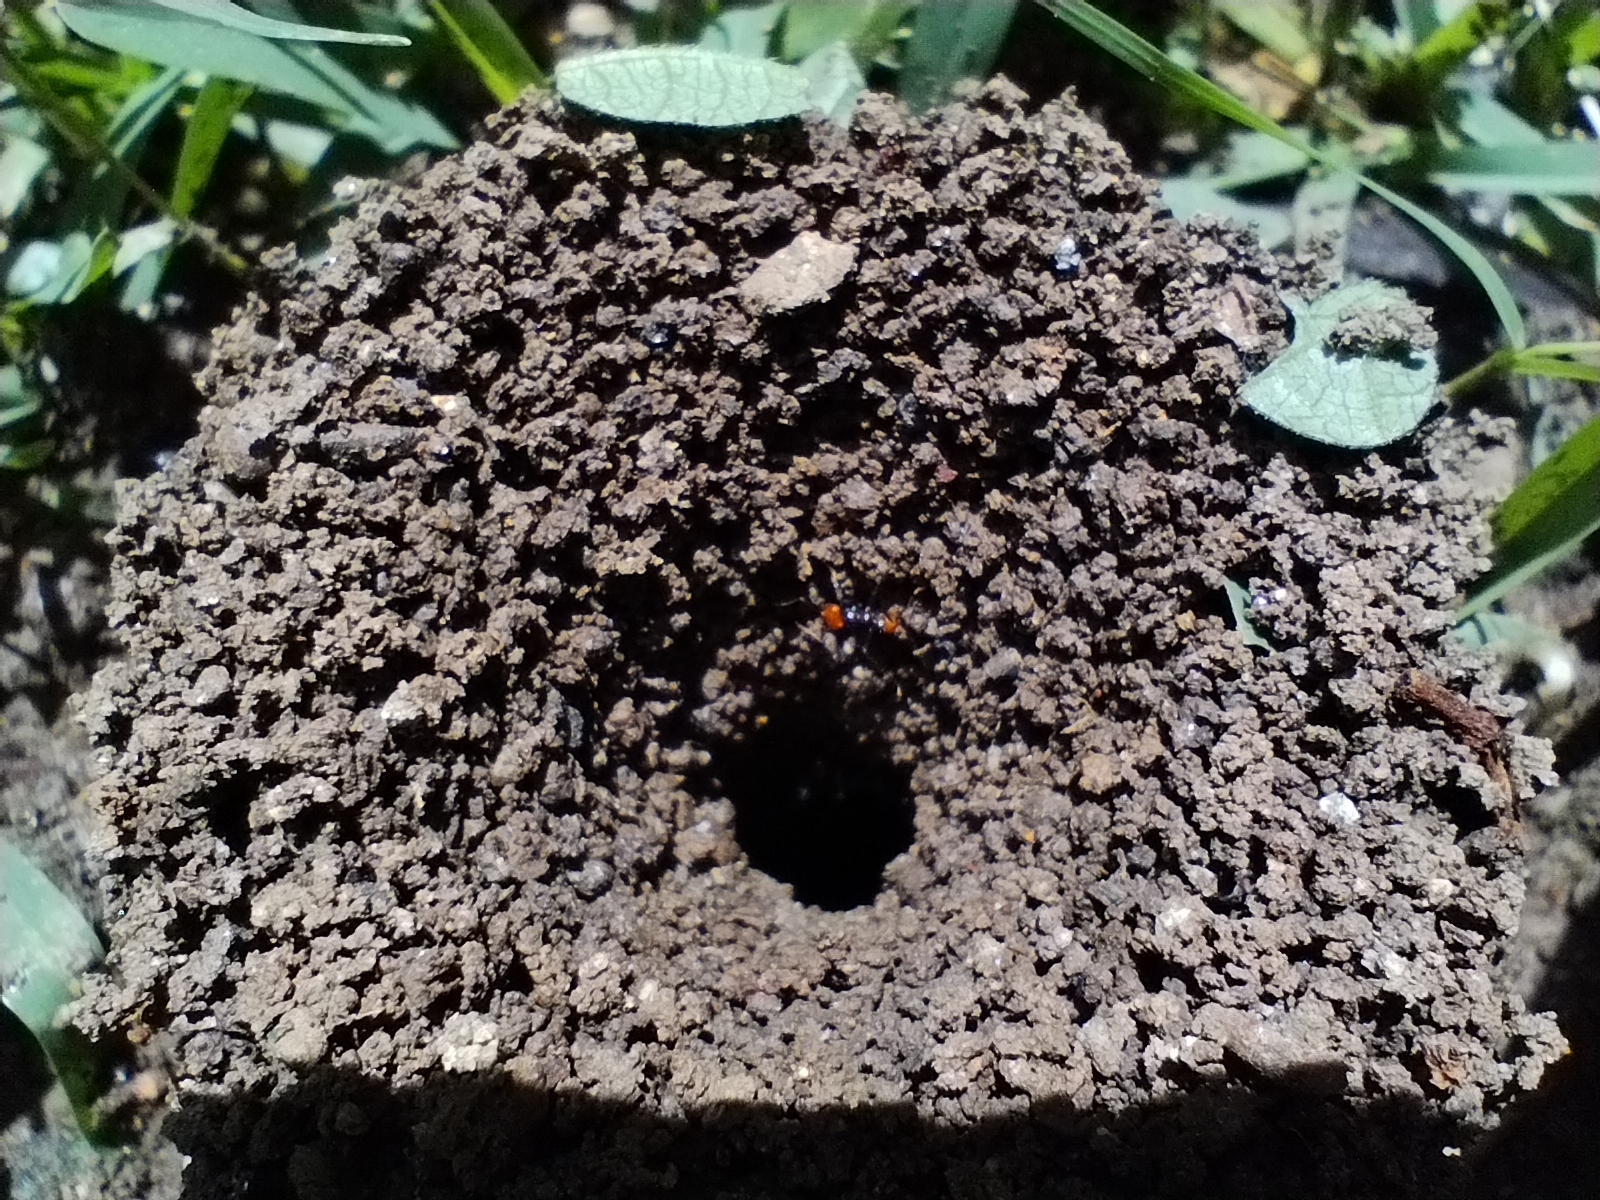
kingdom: Animalia
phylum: Arthropoda
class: Insecta
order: Hymenoptera
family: Formicidae
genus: Atta
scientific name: Atta cephalotes
